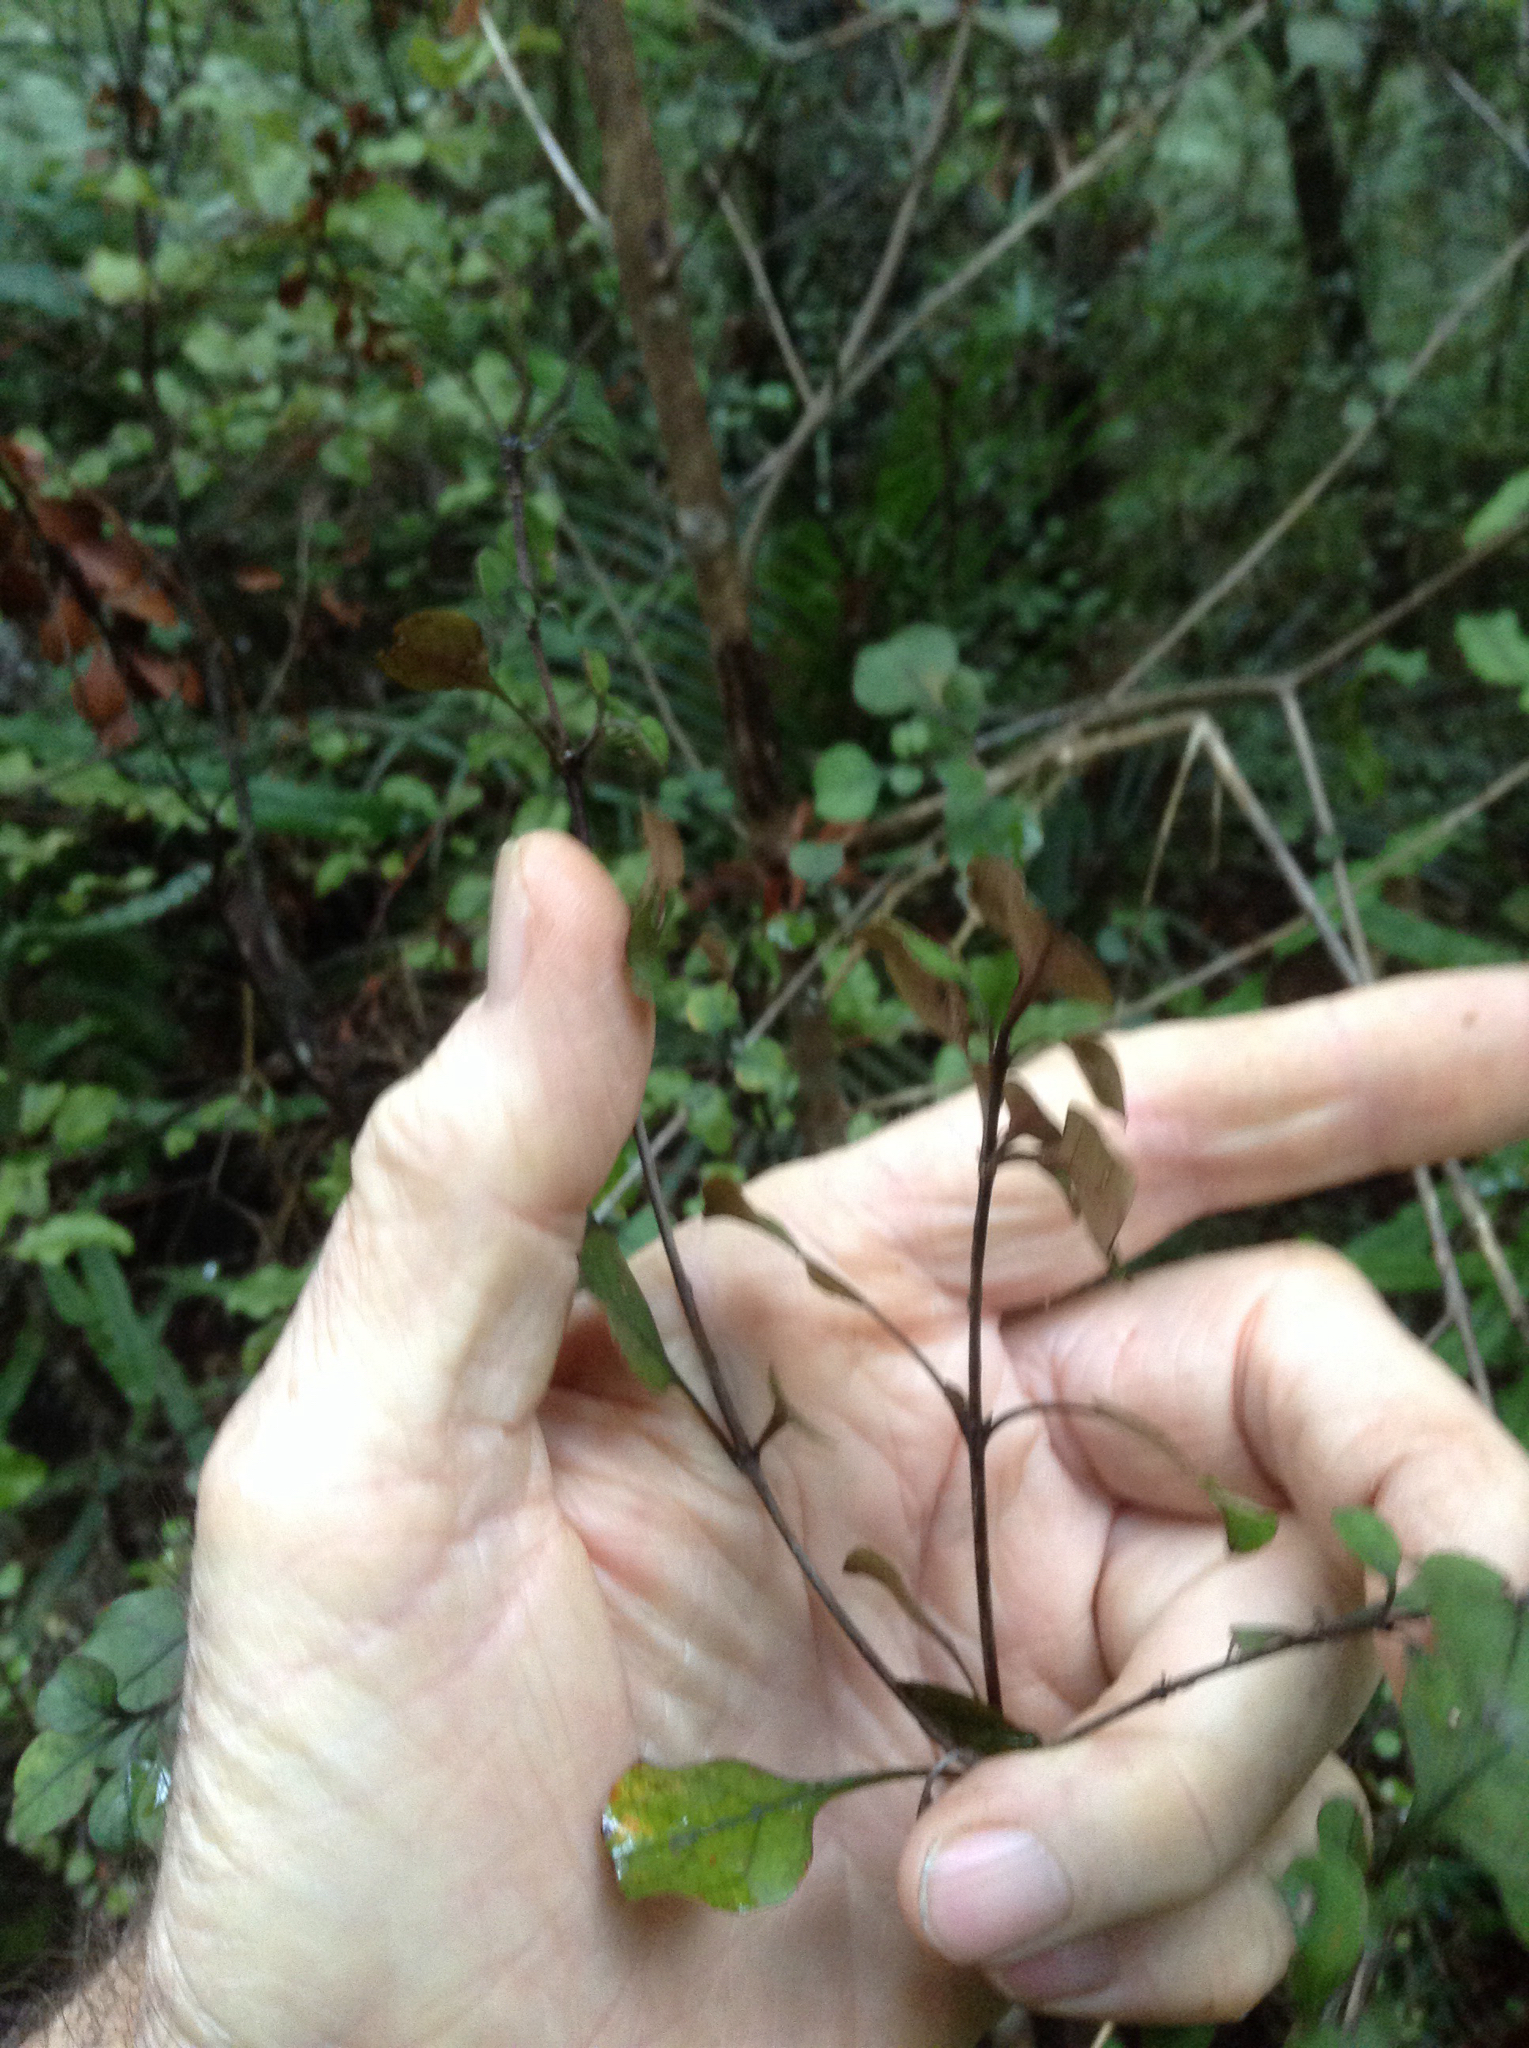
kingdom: Plantae
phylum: Tracheophyta
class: Magnoliopsida
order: Gentianales
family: Rubiaceae
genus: Coprosma
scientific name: Coprosma arborea
